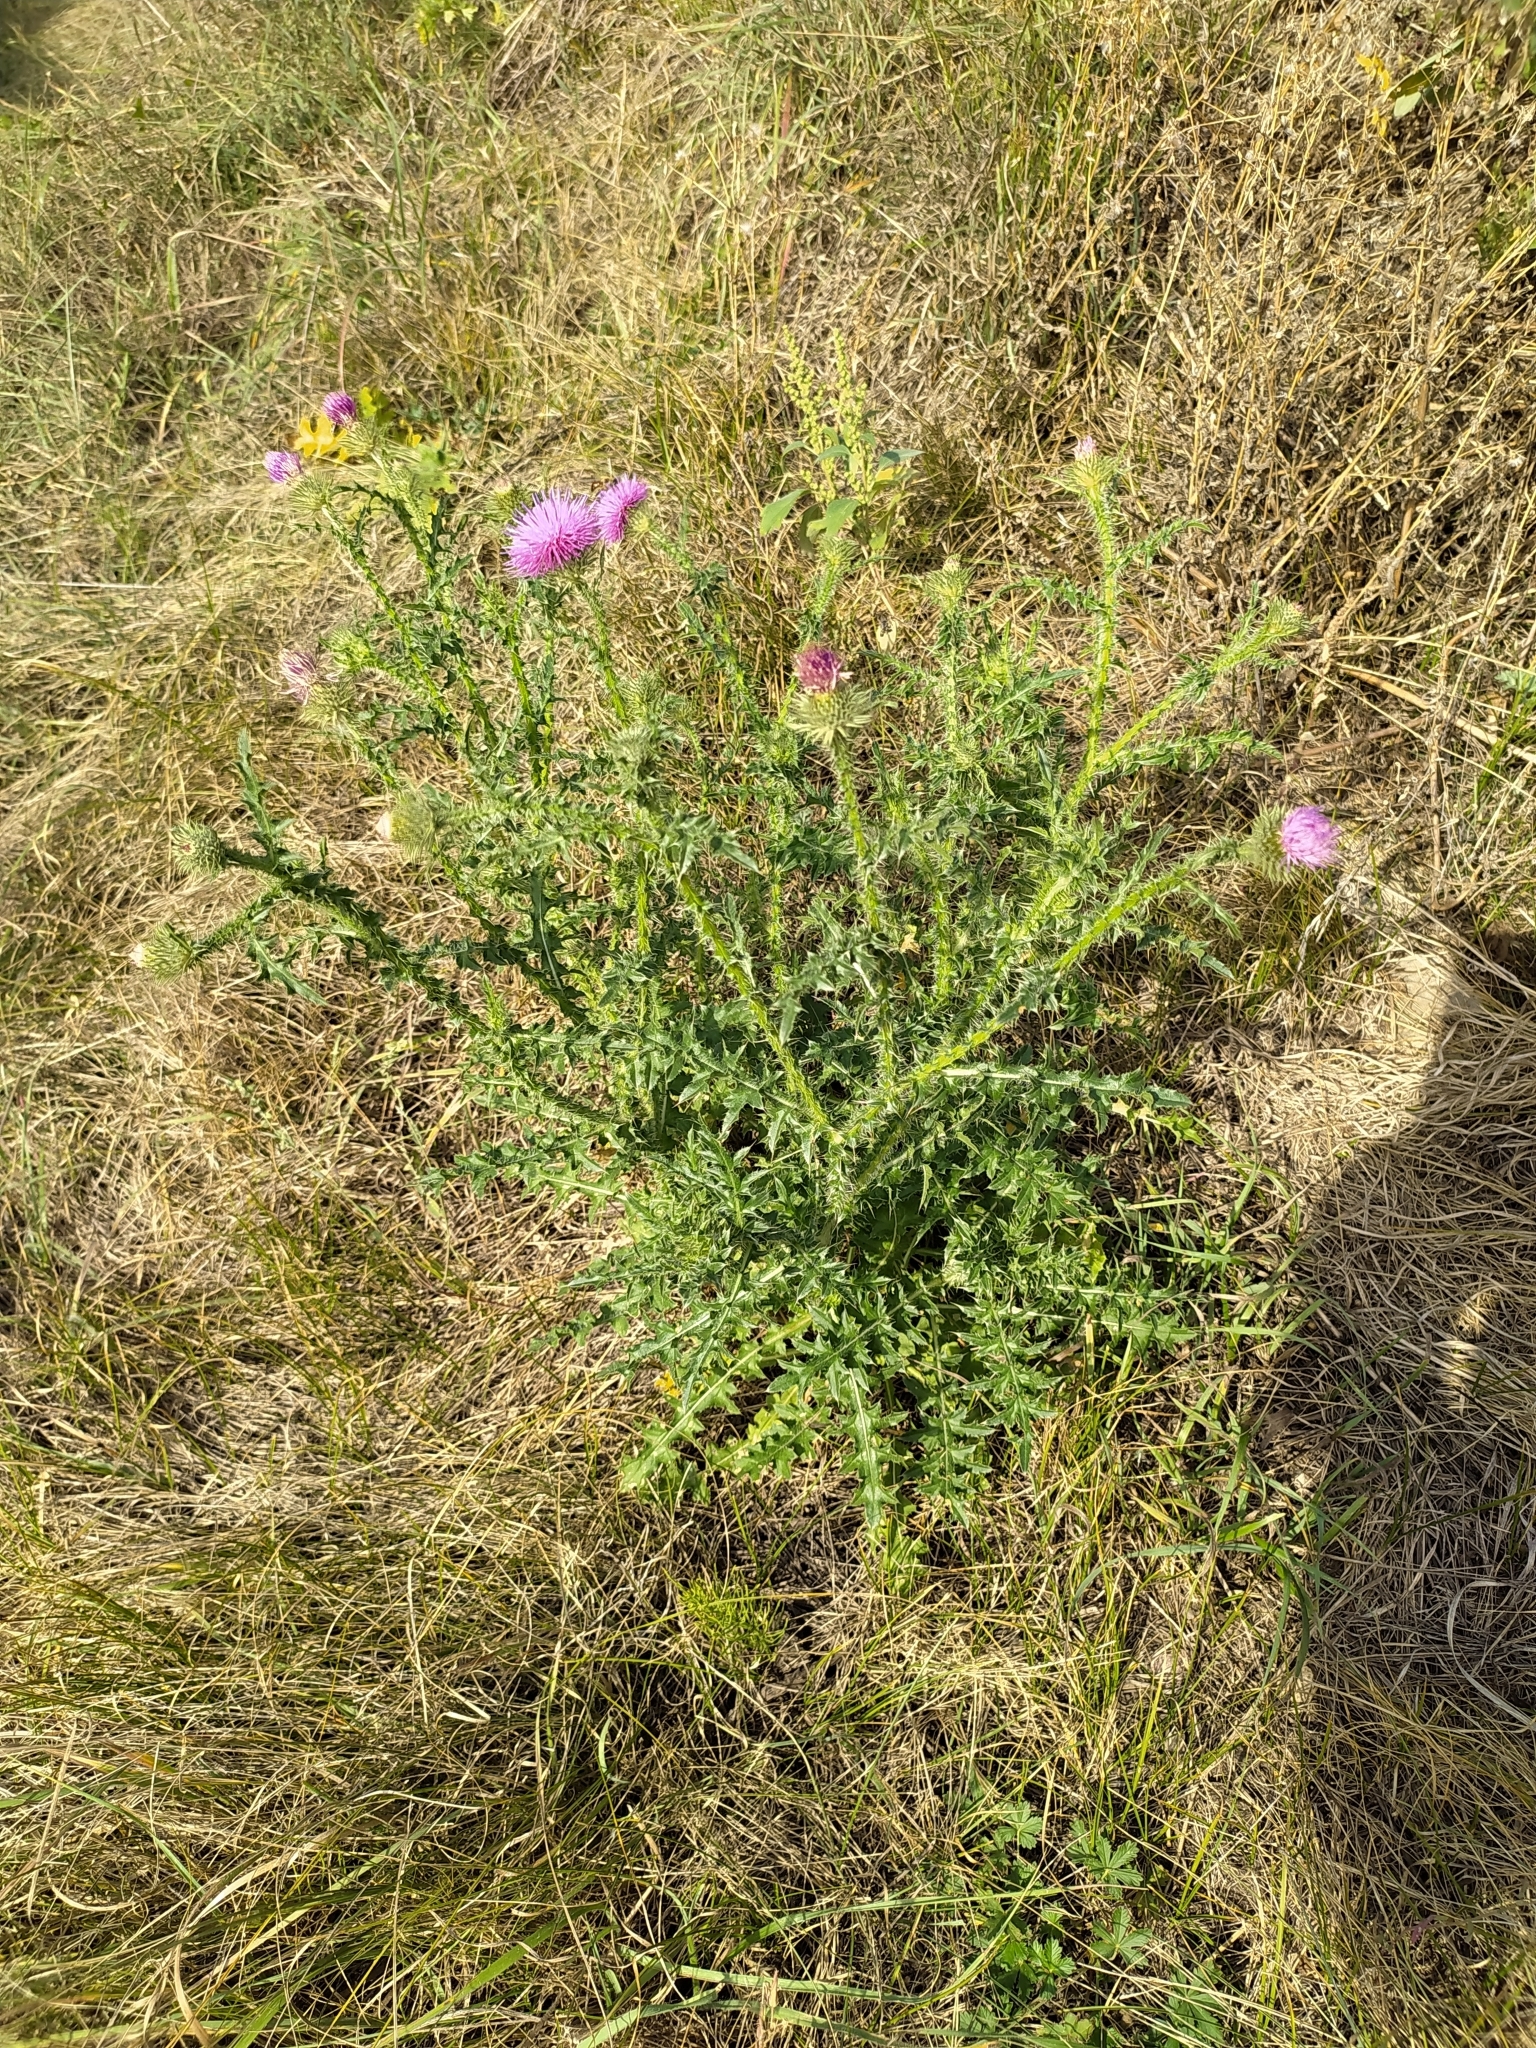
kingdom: Plantae
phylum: Tracheophyta
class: Magnoliopsida
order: Asterales
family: Asteraceae
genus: Carduus
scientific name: Carduus acanthoides
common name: Plumeless thistle
